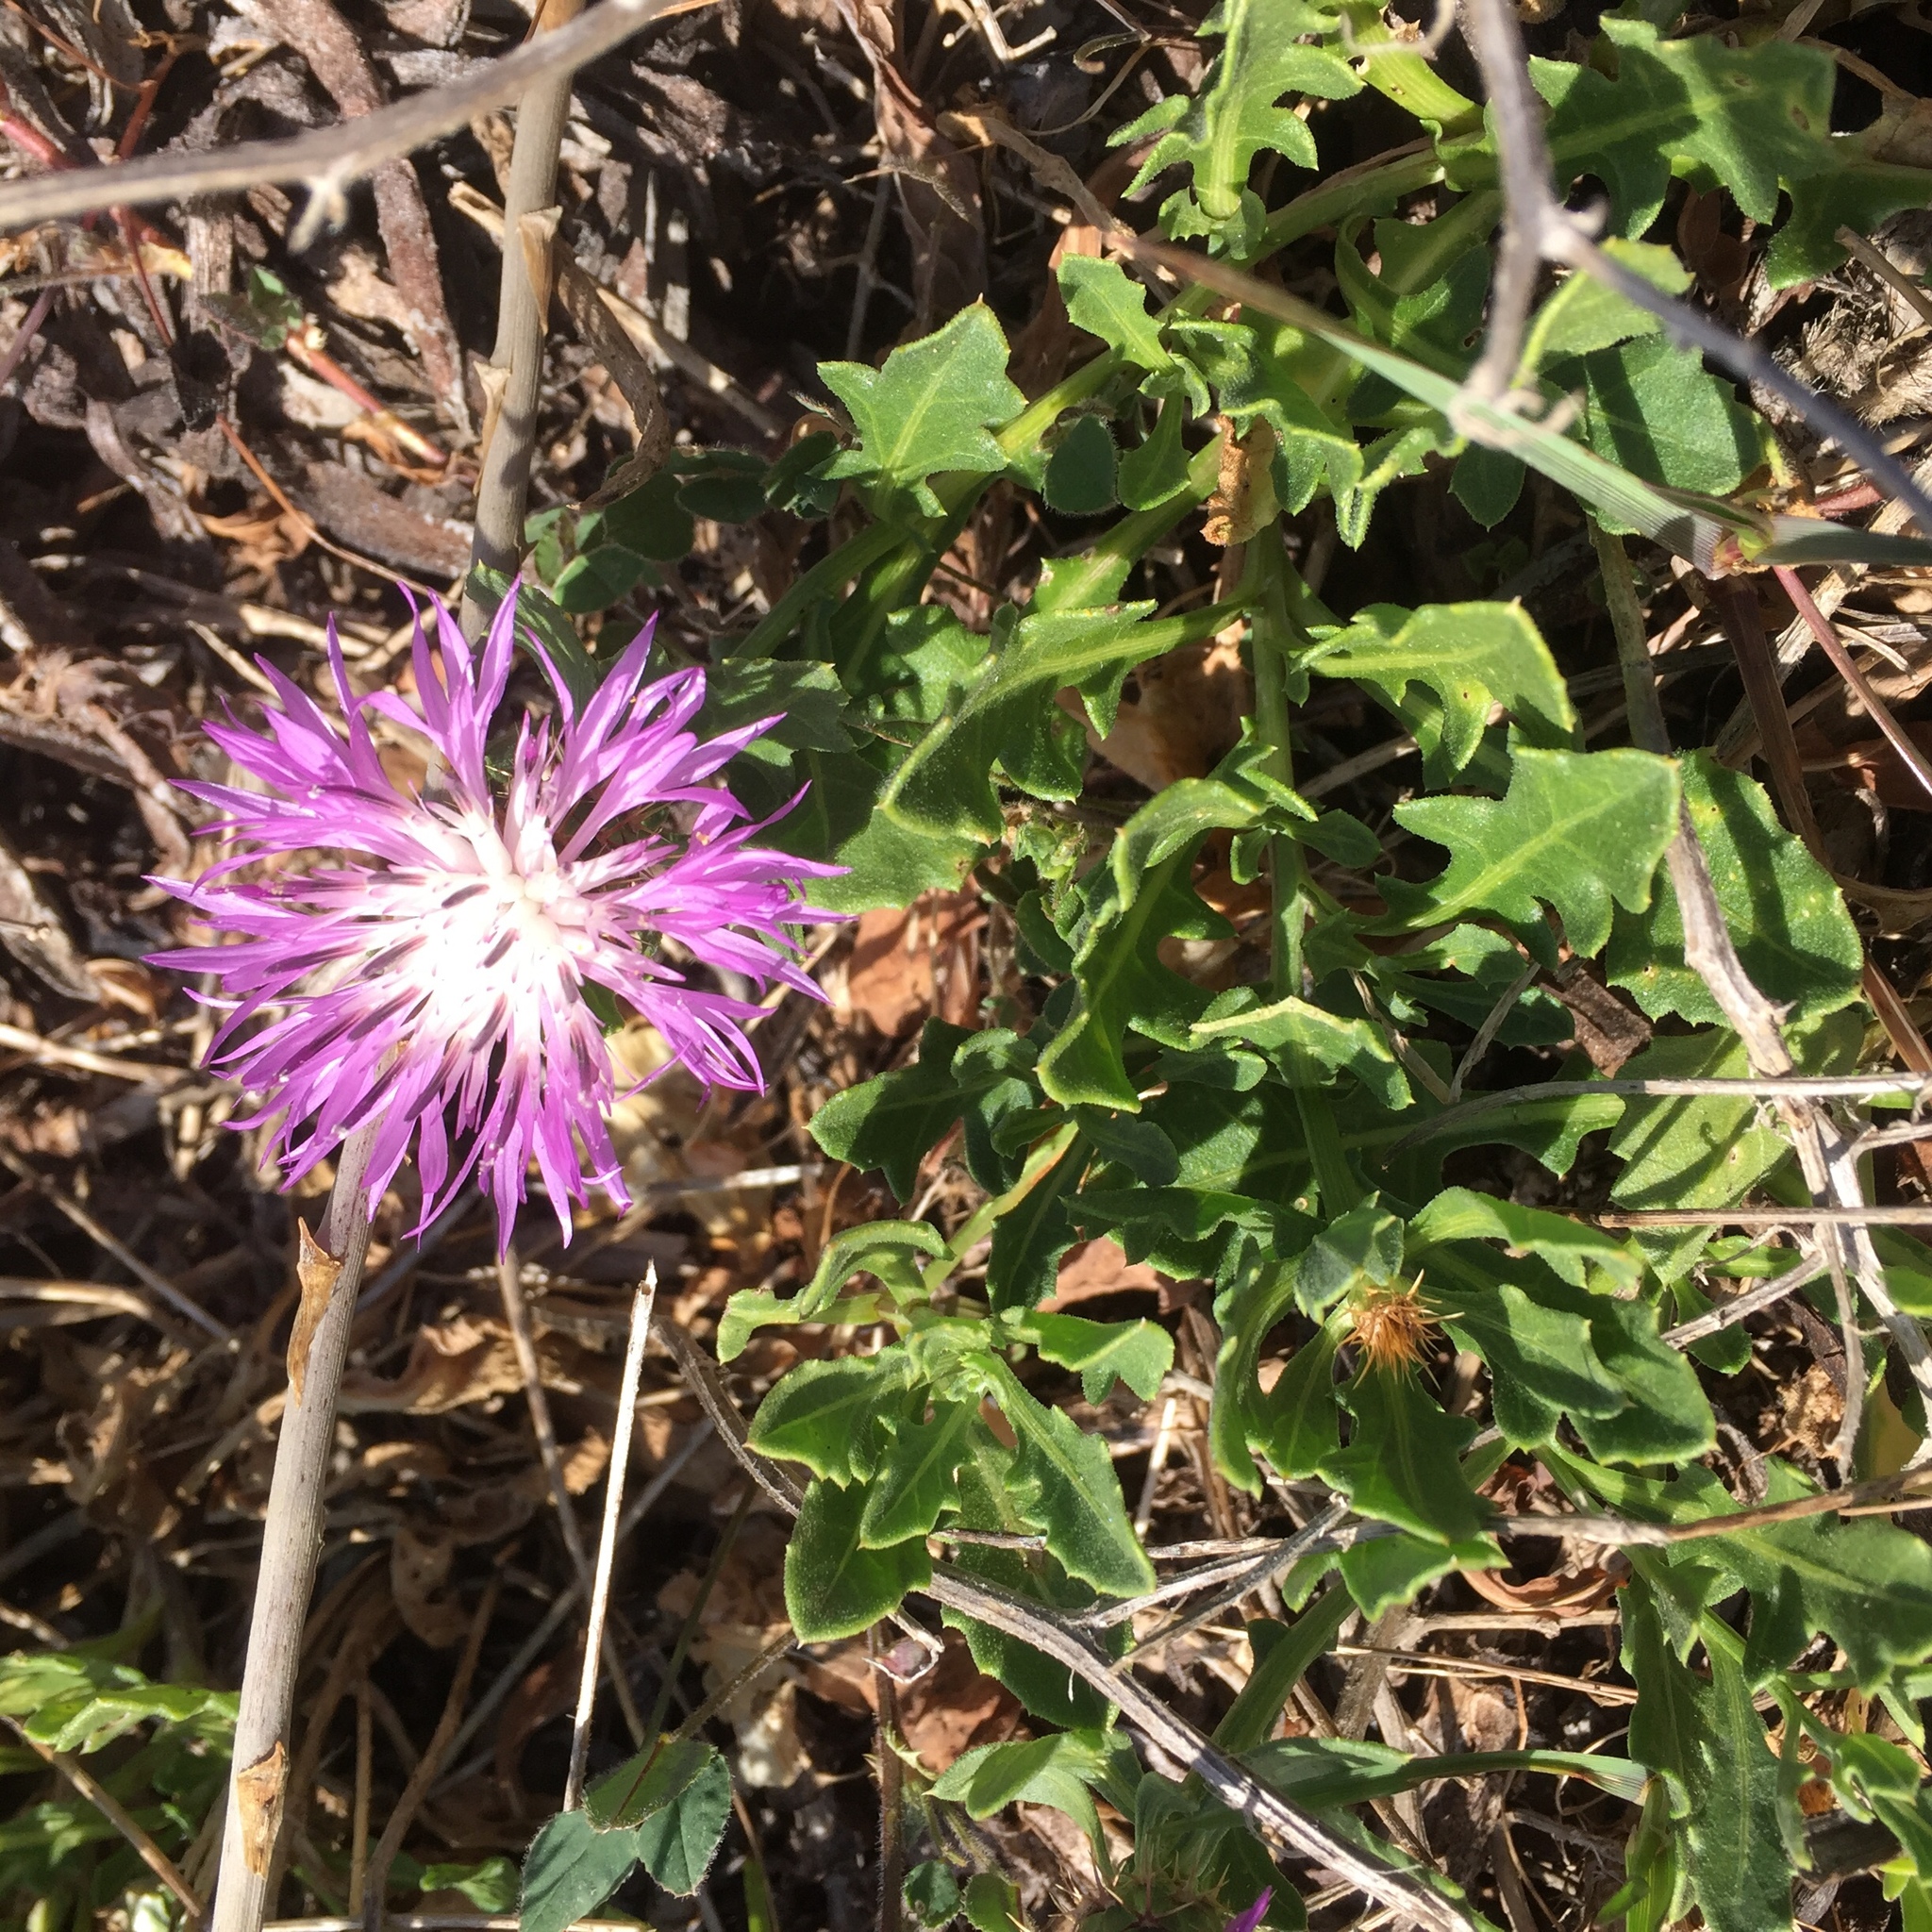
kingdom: Plantae
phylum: Tracheophyta
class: Magnoliopsida
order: Asterales
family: Asteraceae
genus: Centaurea
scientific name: Centaurea susannae
